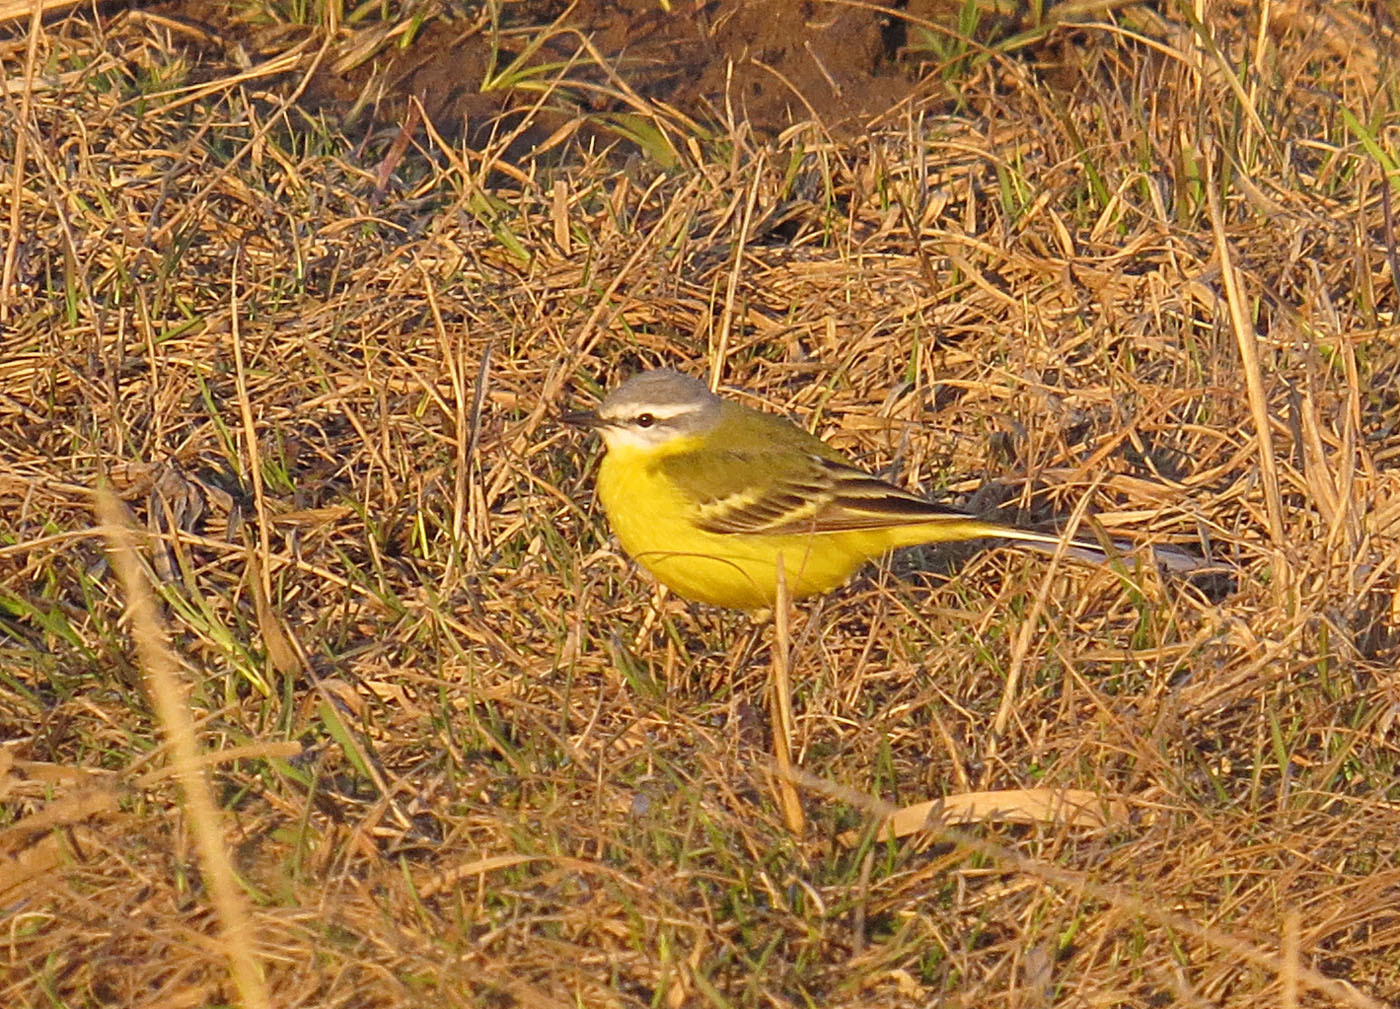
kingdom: Animalia
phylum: Chordata
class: Aves
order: Passeriformes
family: Motacillidae
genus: Motacilla
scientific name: Motacilla flava
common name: Western yellow wagtail
